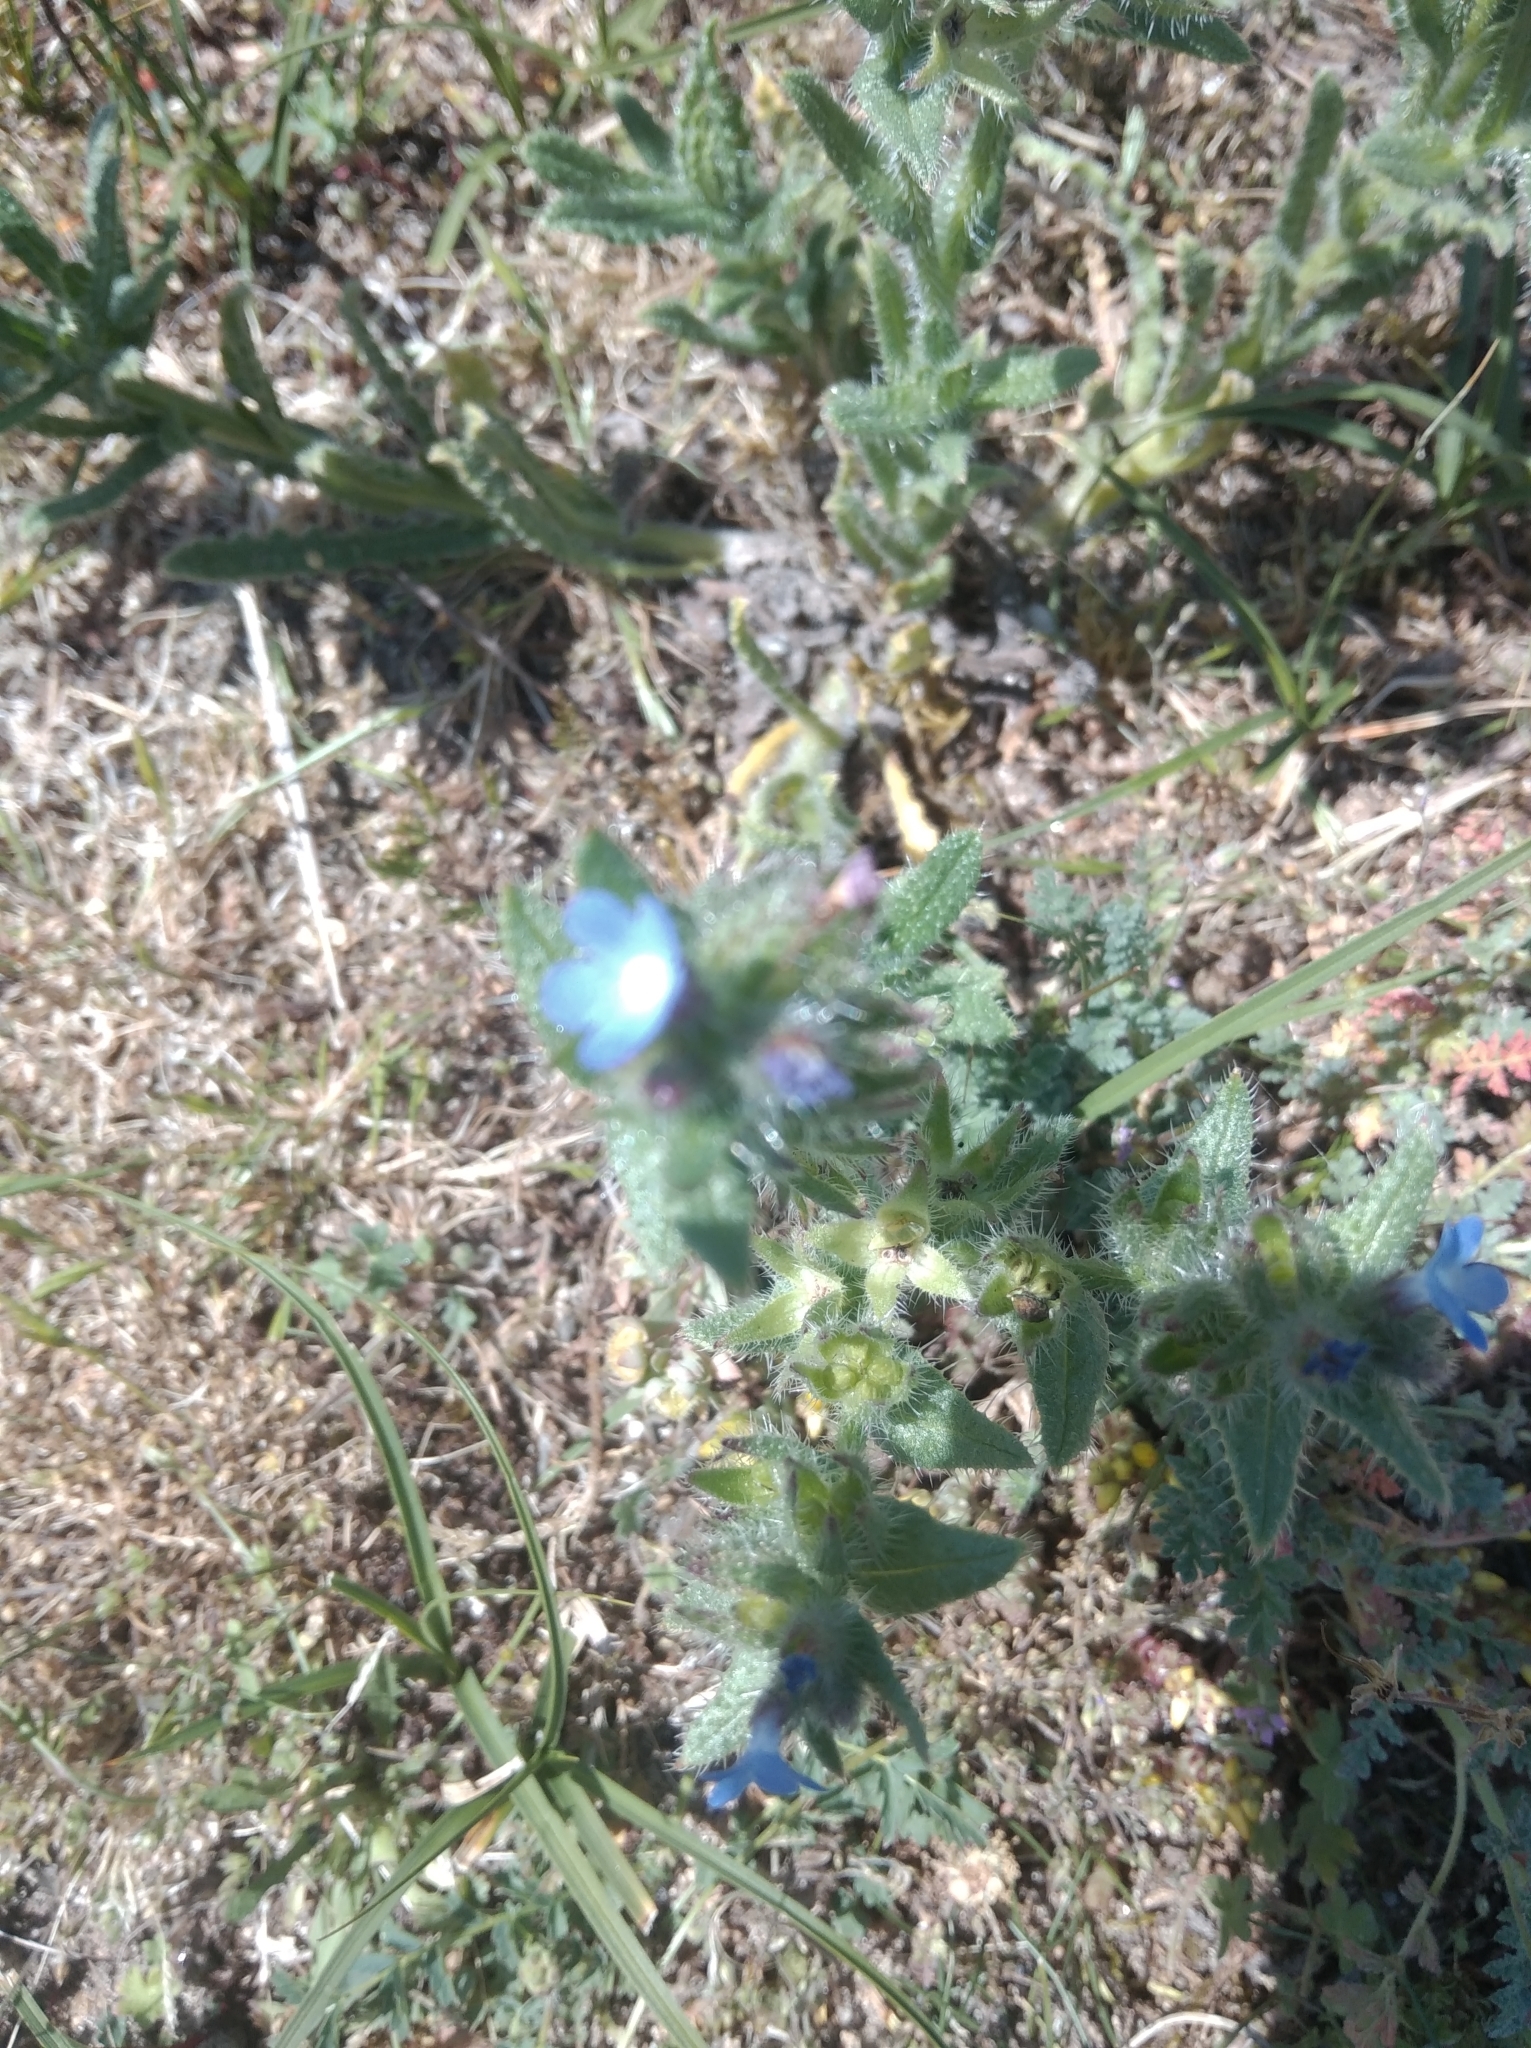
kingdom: Plantae
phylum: Tracheophyta
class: Magnoliopsida
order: Boraginales
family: Boraginaceae
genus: Lycopsis
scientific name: Lycopsis arvensis
